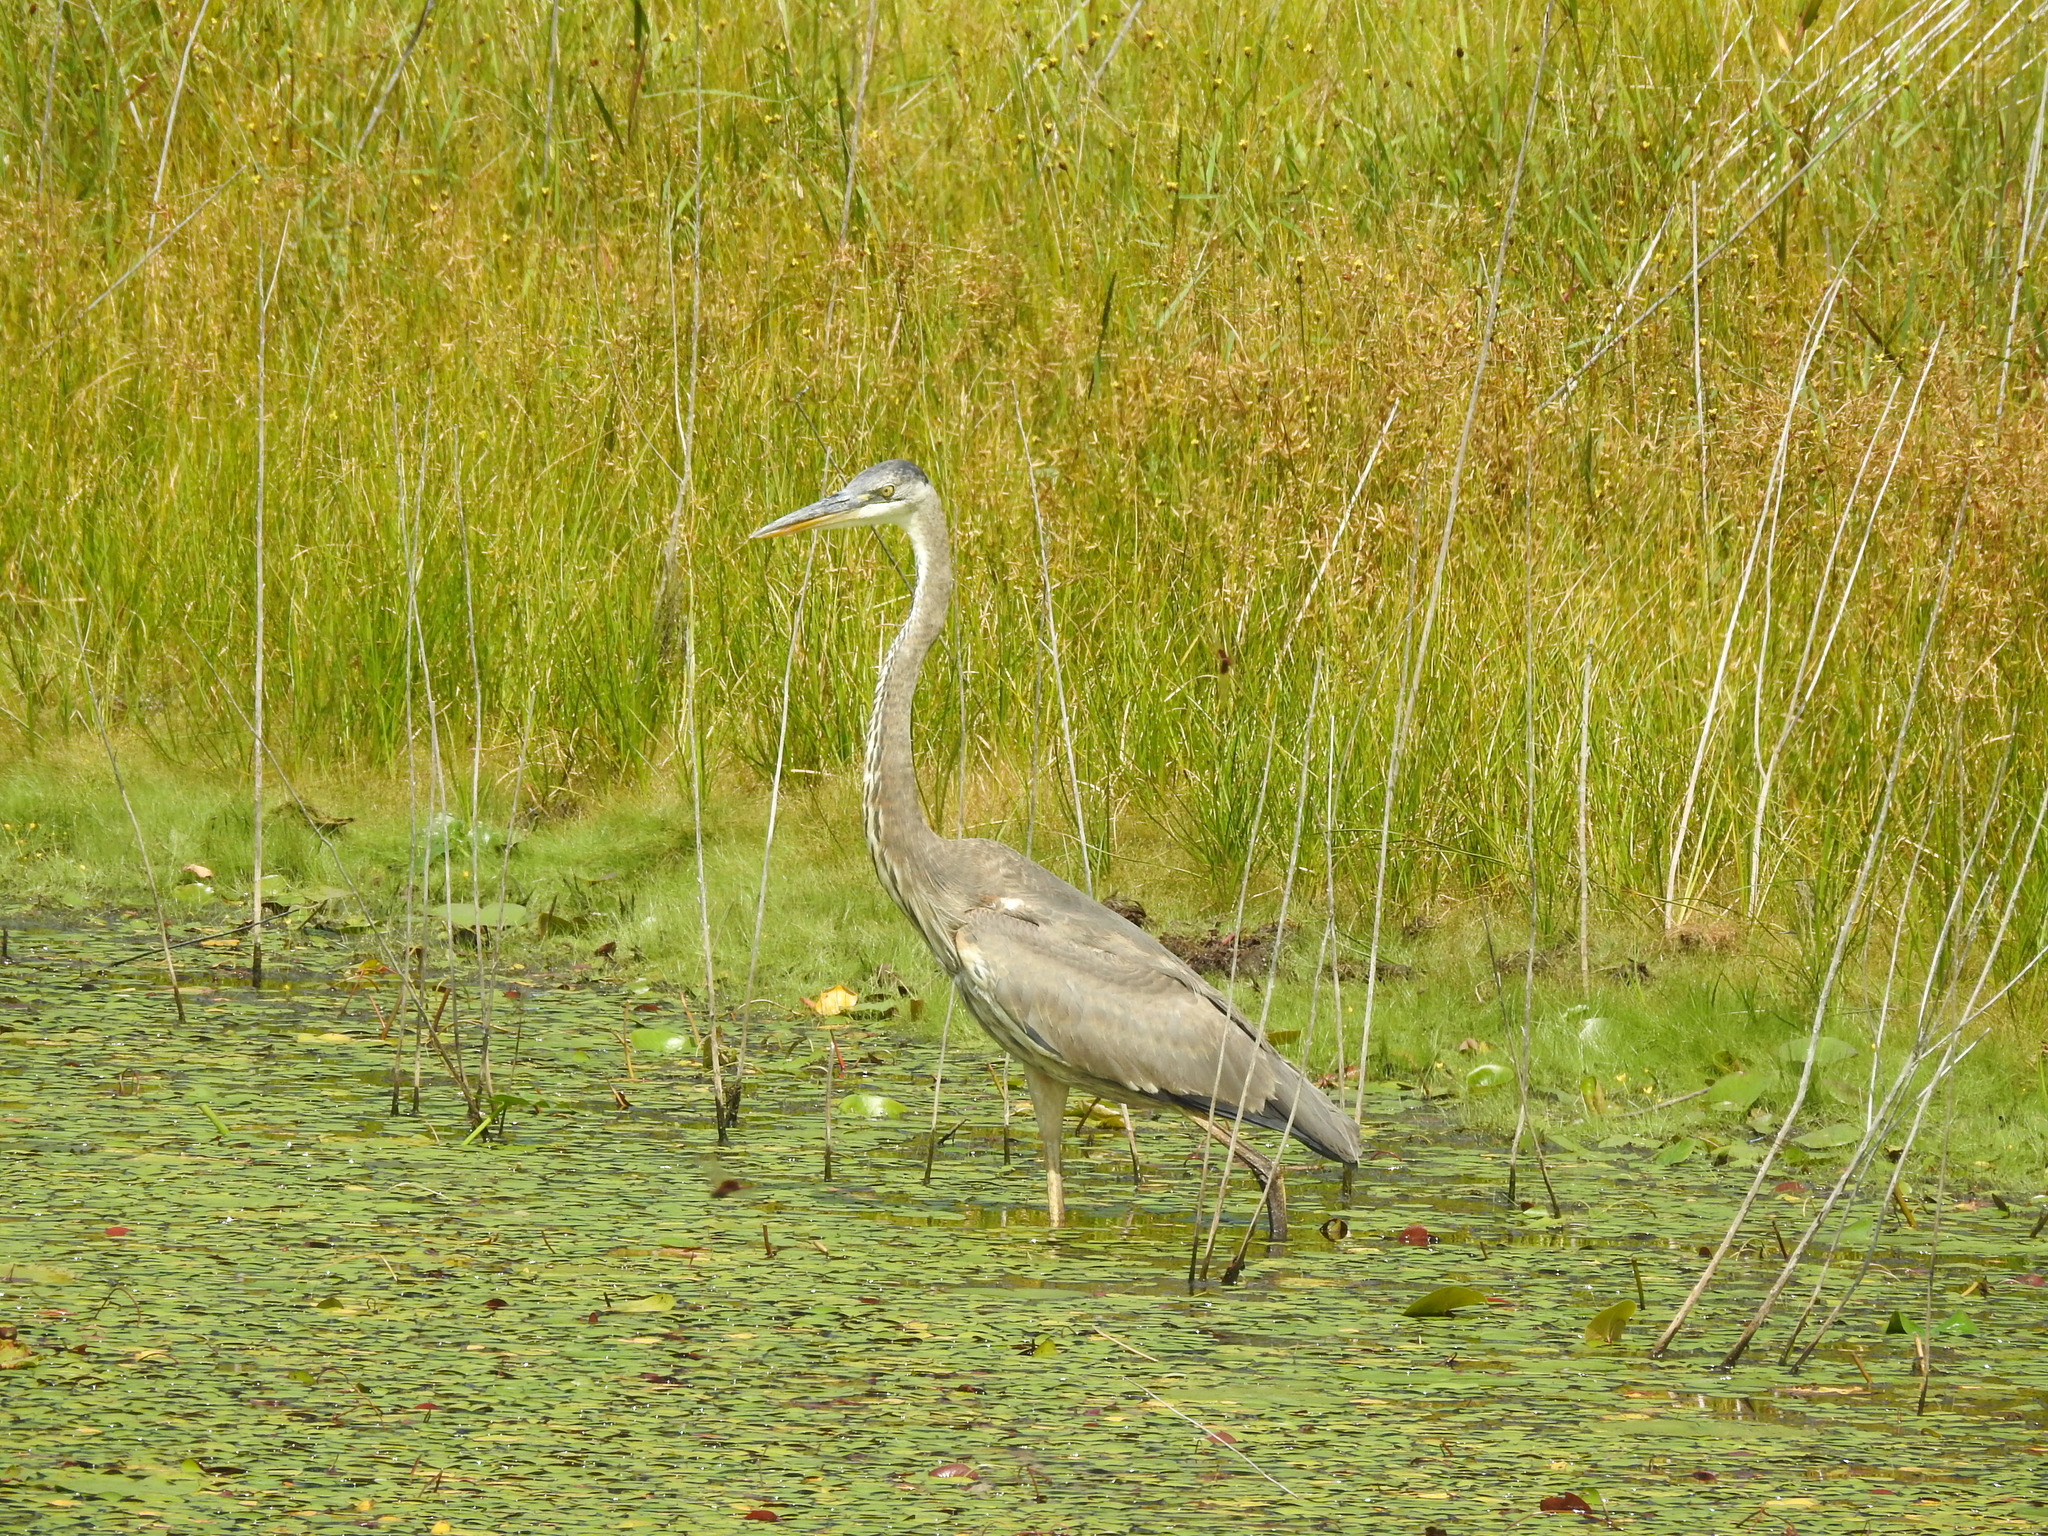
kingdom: Animalia
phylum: Chordata
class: Aves
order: Pelecaniformes
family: Ardeidae
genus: Ardea
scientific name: Ardea herodias
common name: Great blue heron
